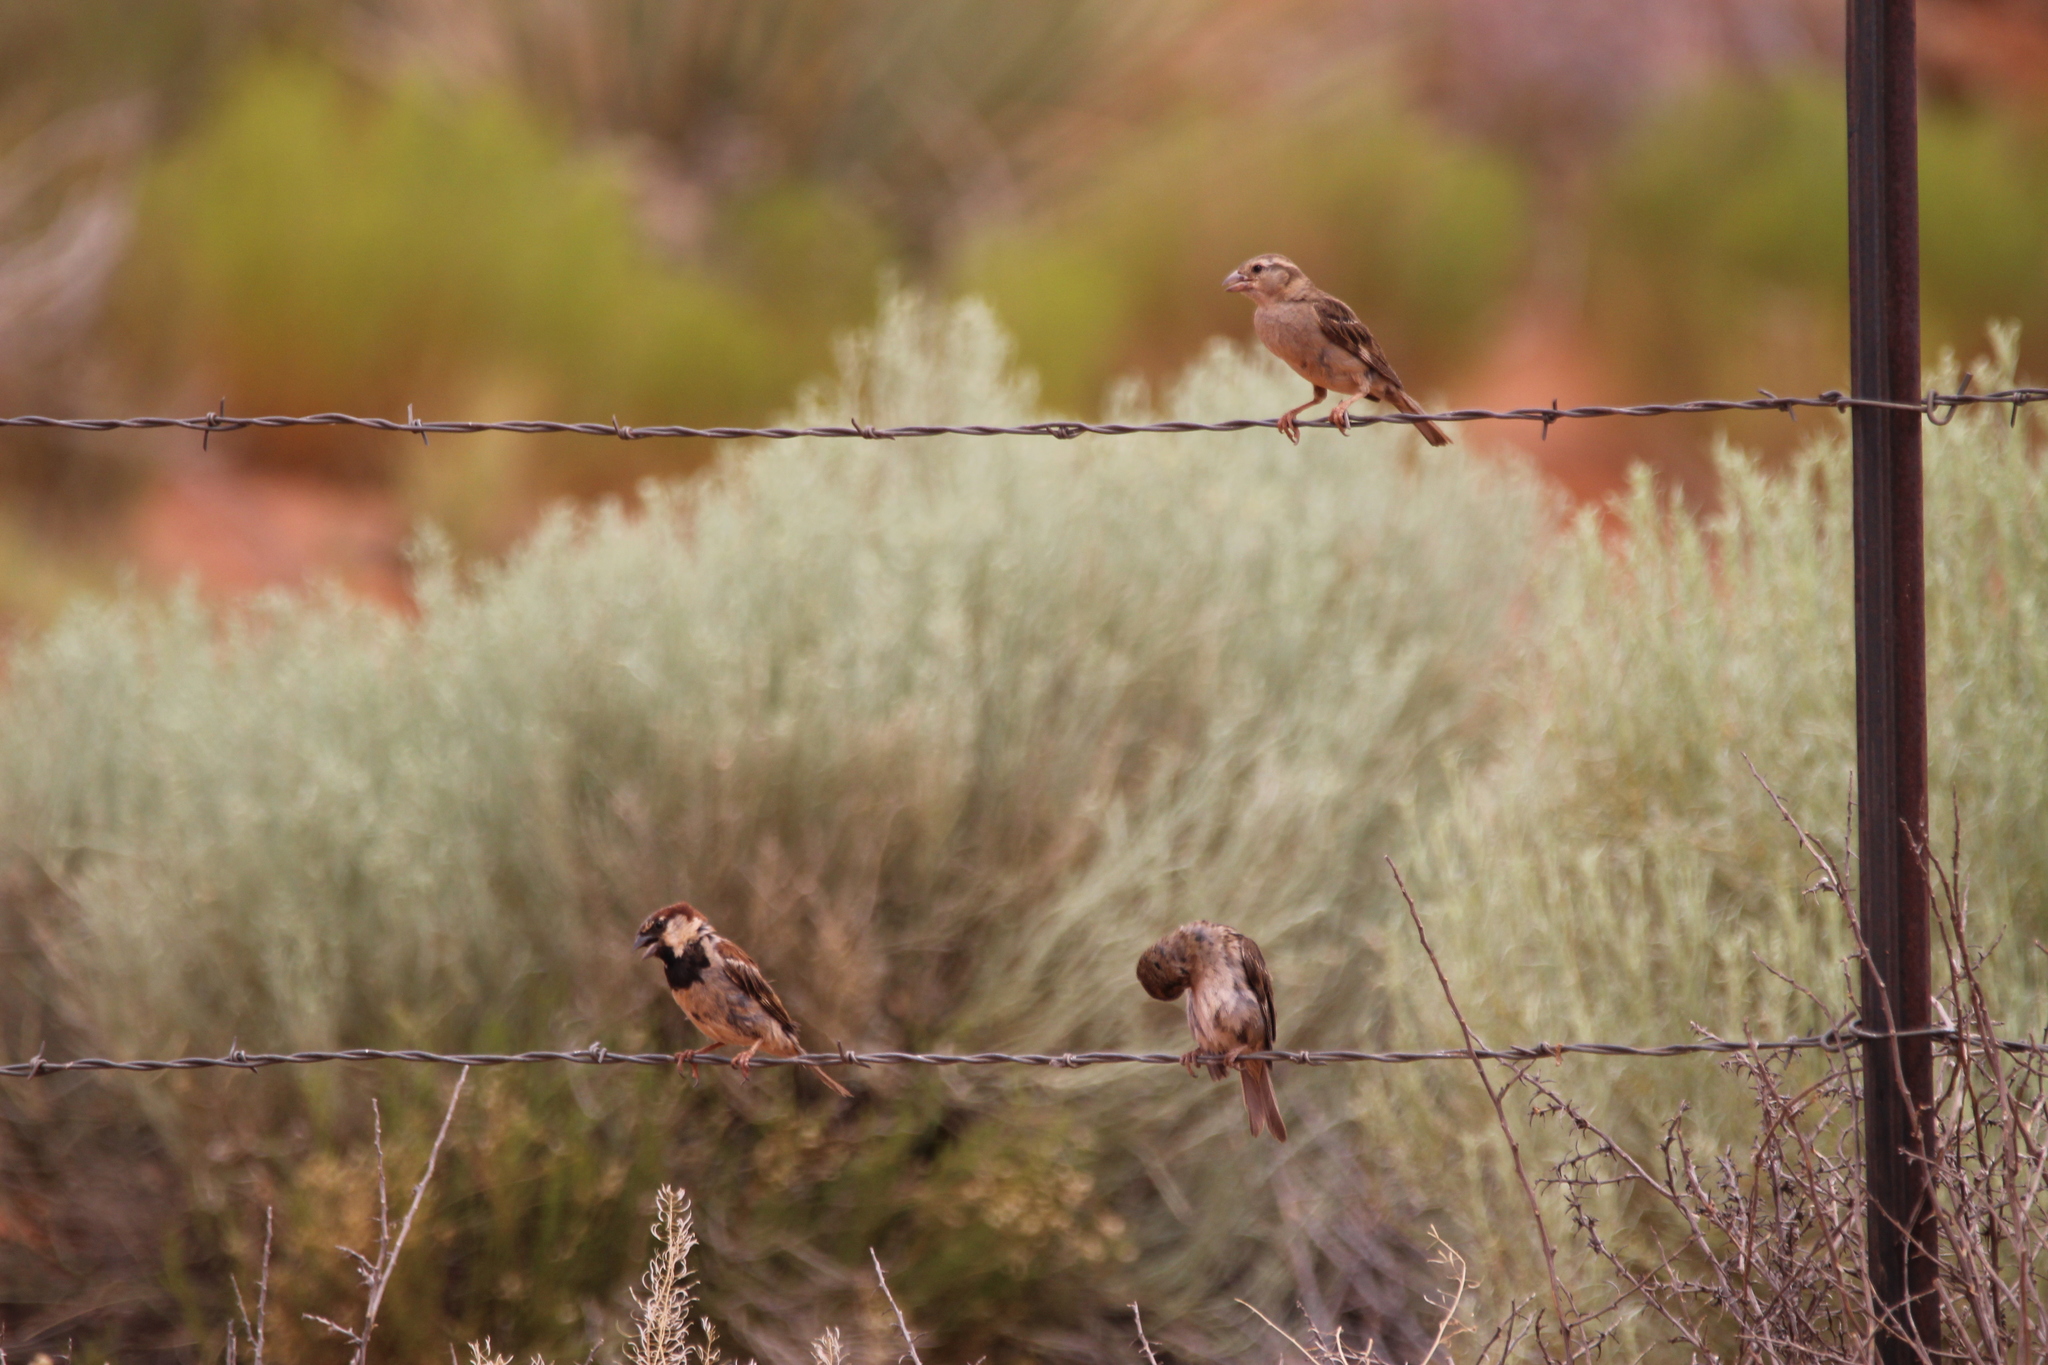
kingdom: Animalia
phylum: Chordata
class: Aves
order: Passeriformes
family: Passeridae
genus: Passer
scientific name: Passer domesticus
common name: House sparrow
